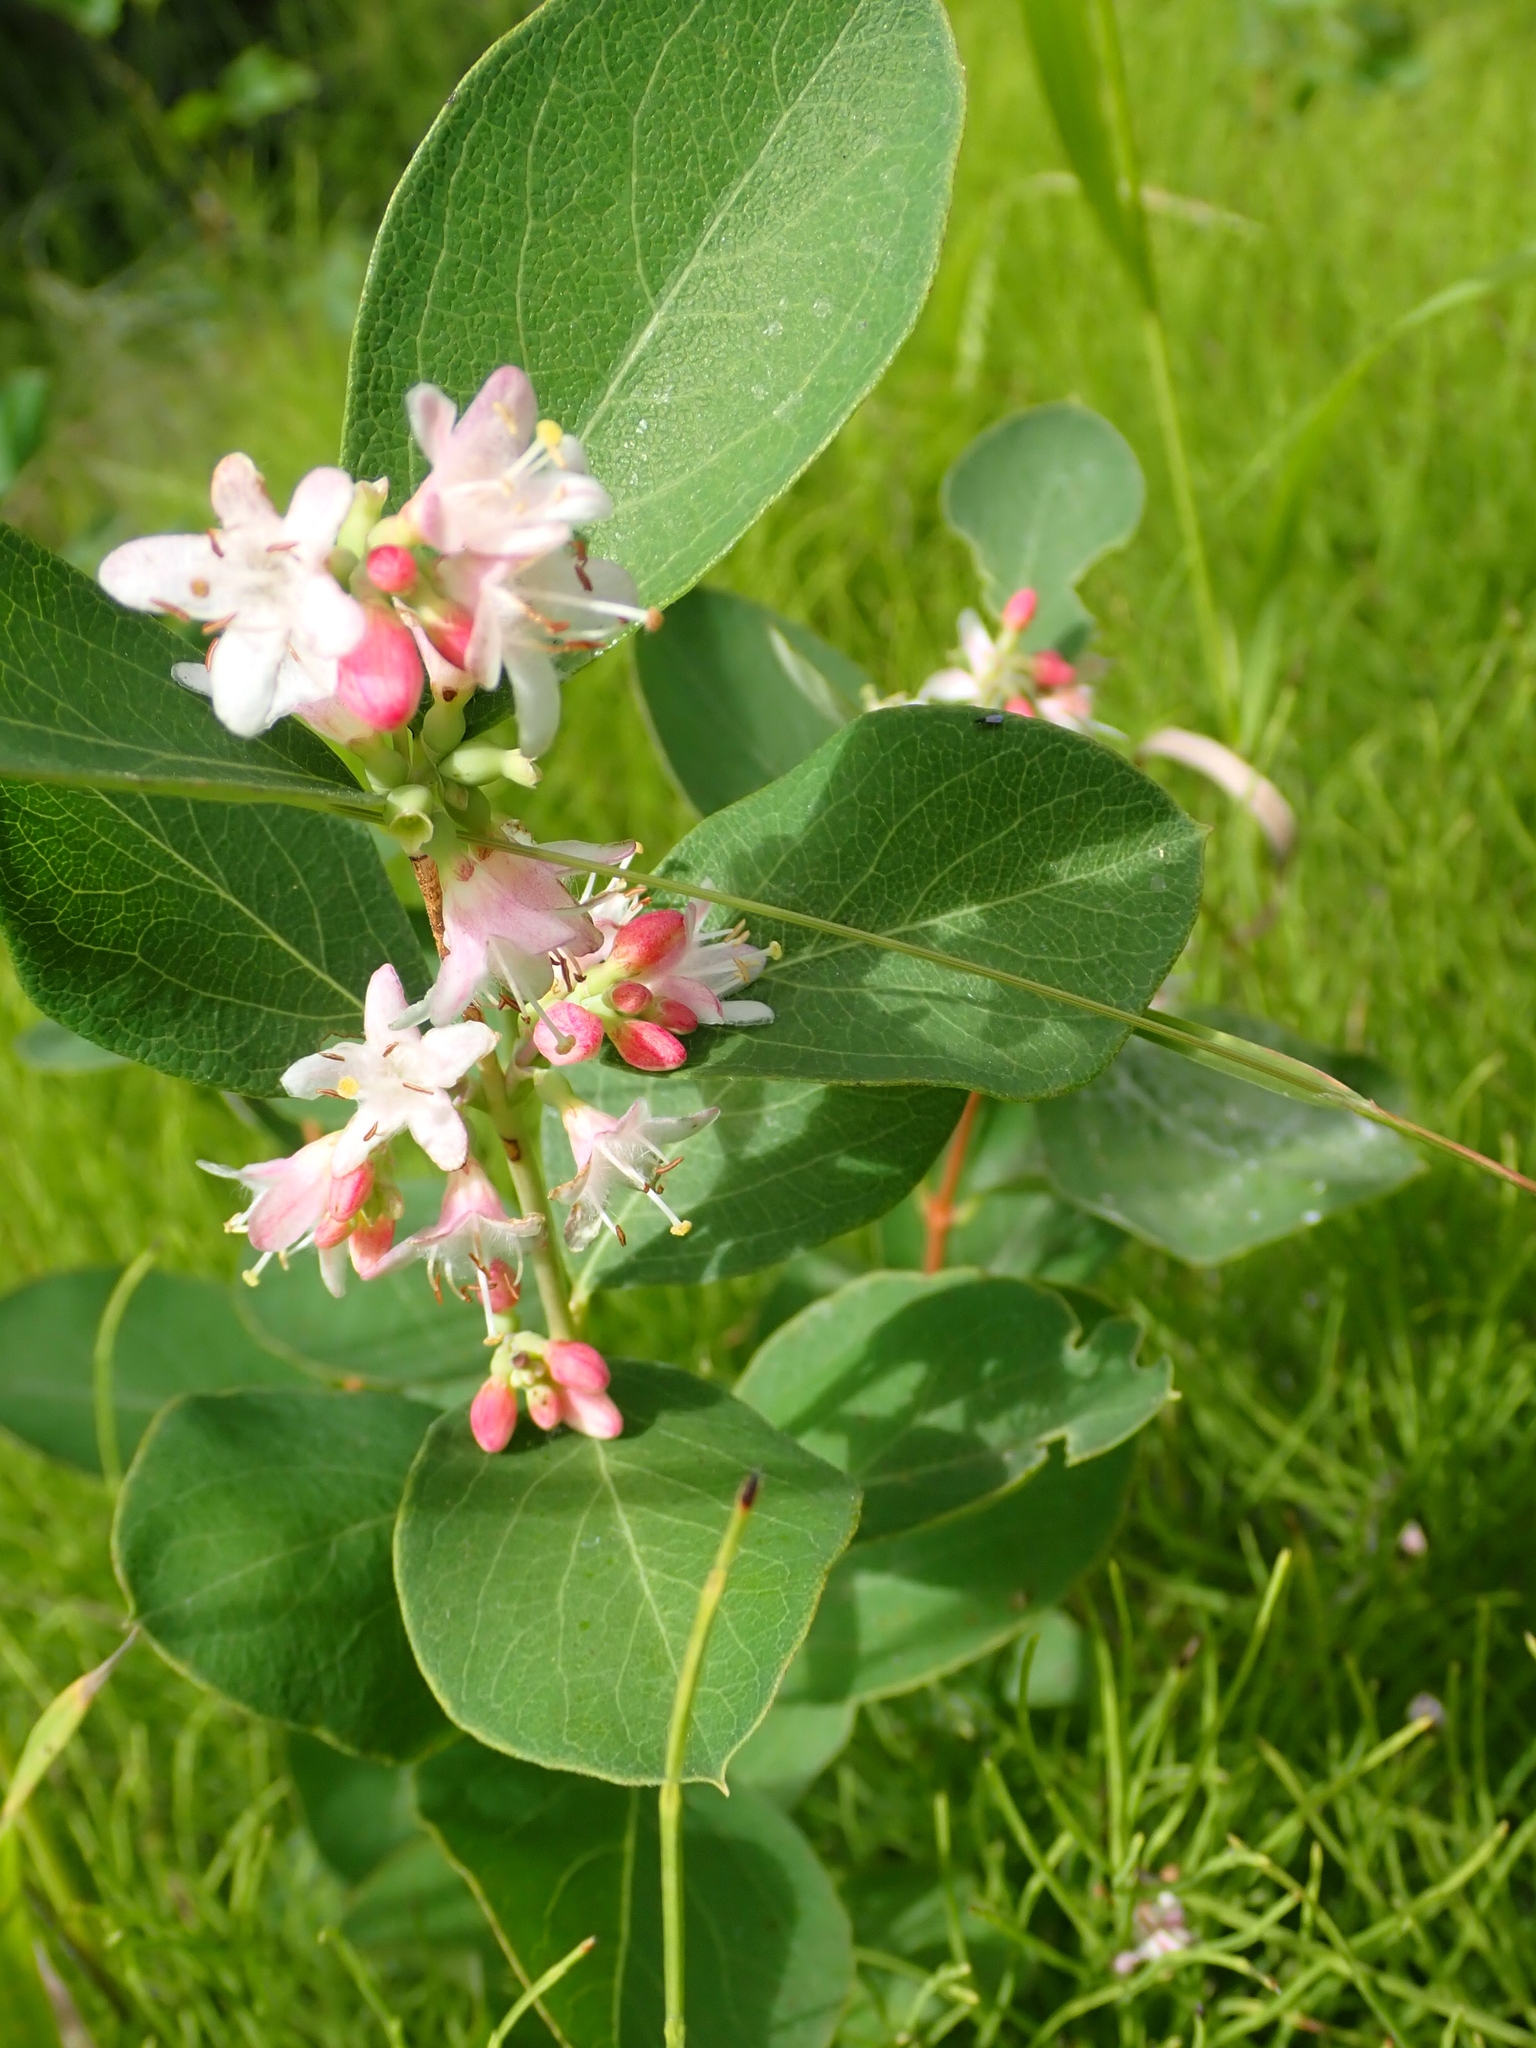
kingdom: Plantae
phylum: Tracheophyta
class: Magnoliopsida
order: Dipsacales
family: Caprifoliaceae
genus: Symphoricarpos
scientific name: Symphoricarpos occidentalis
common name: Wolfberry
